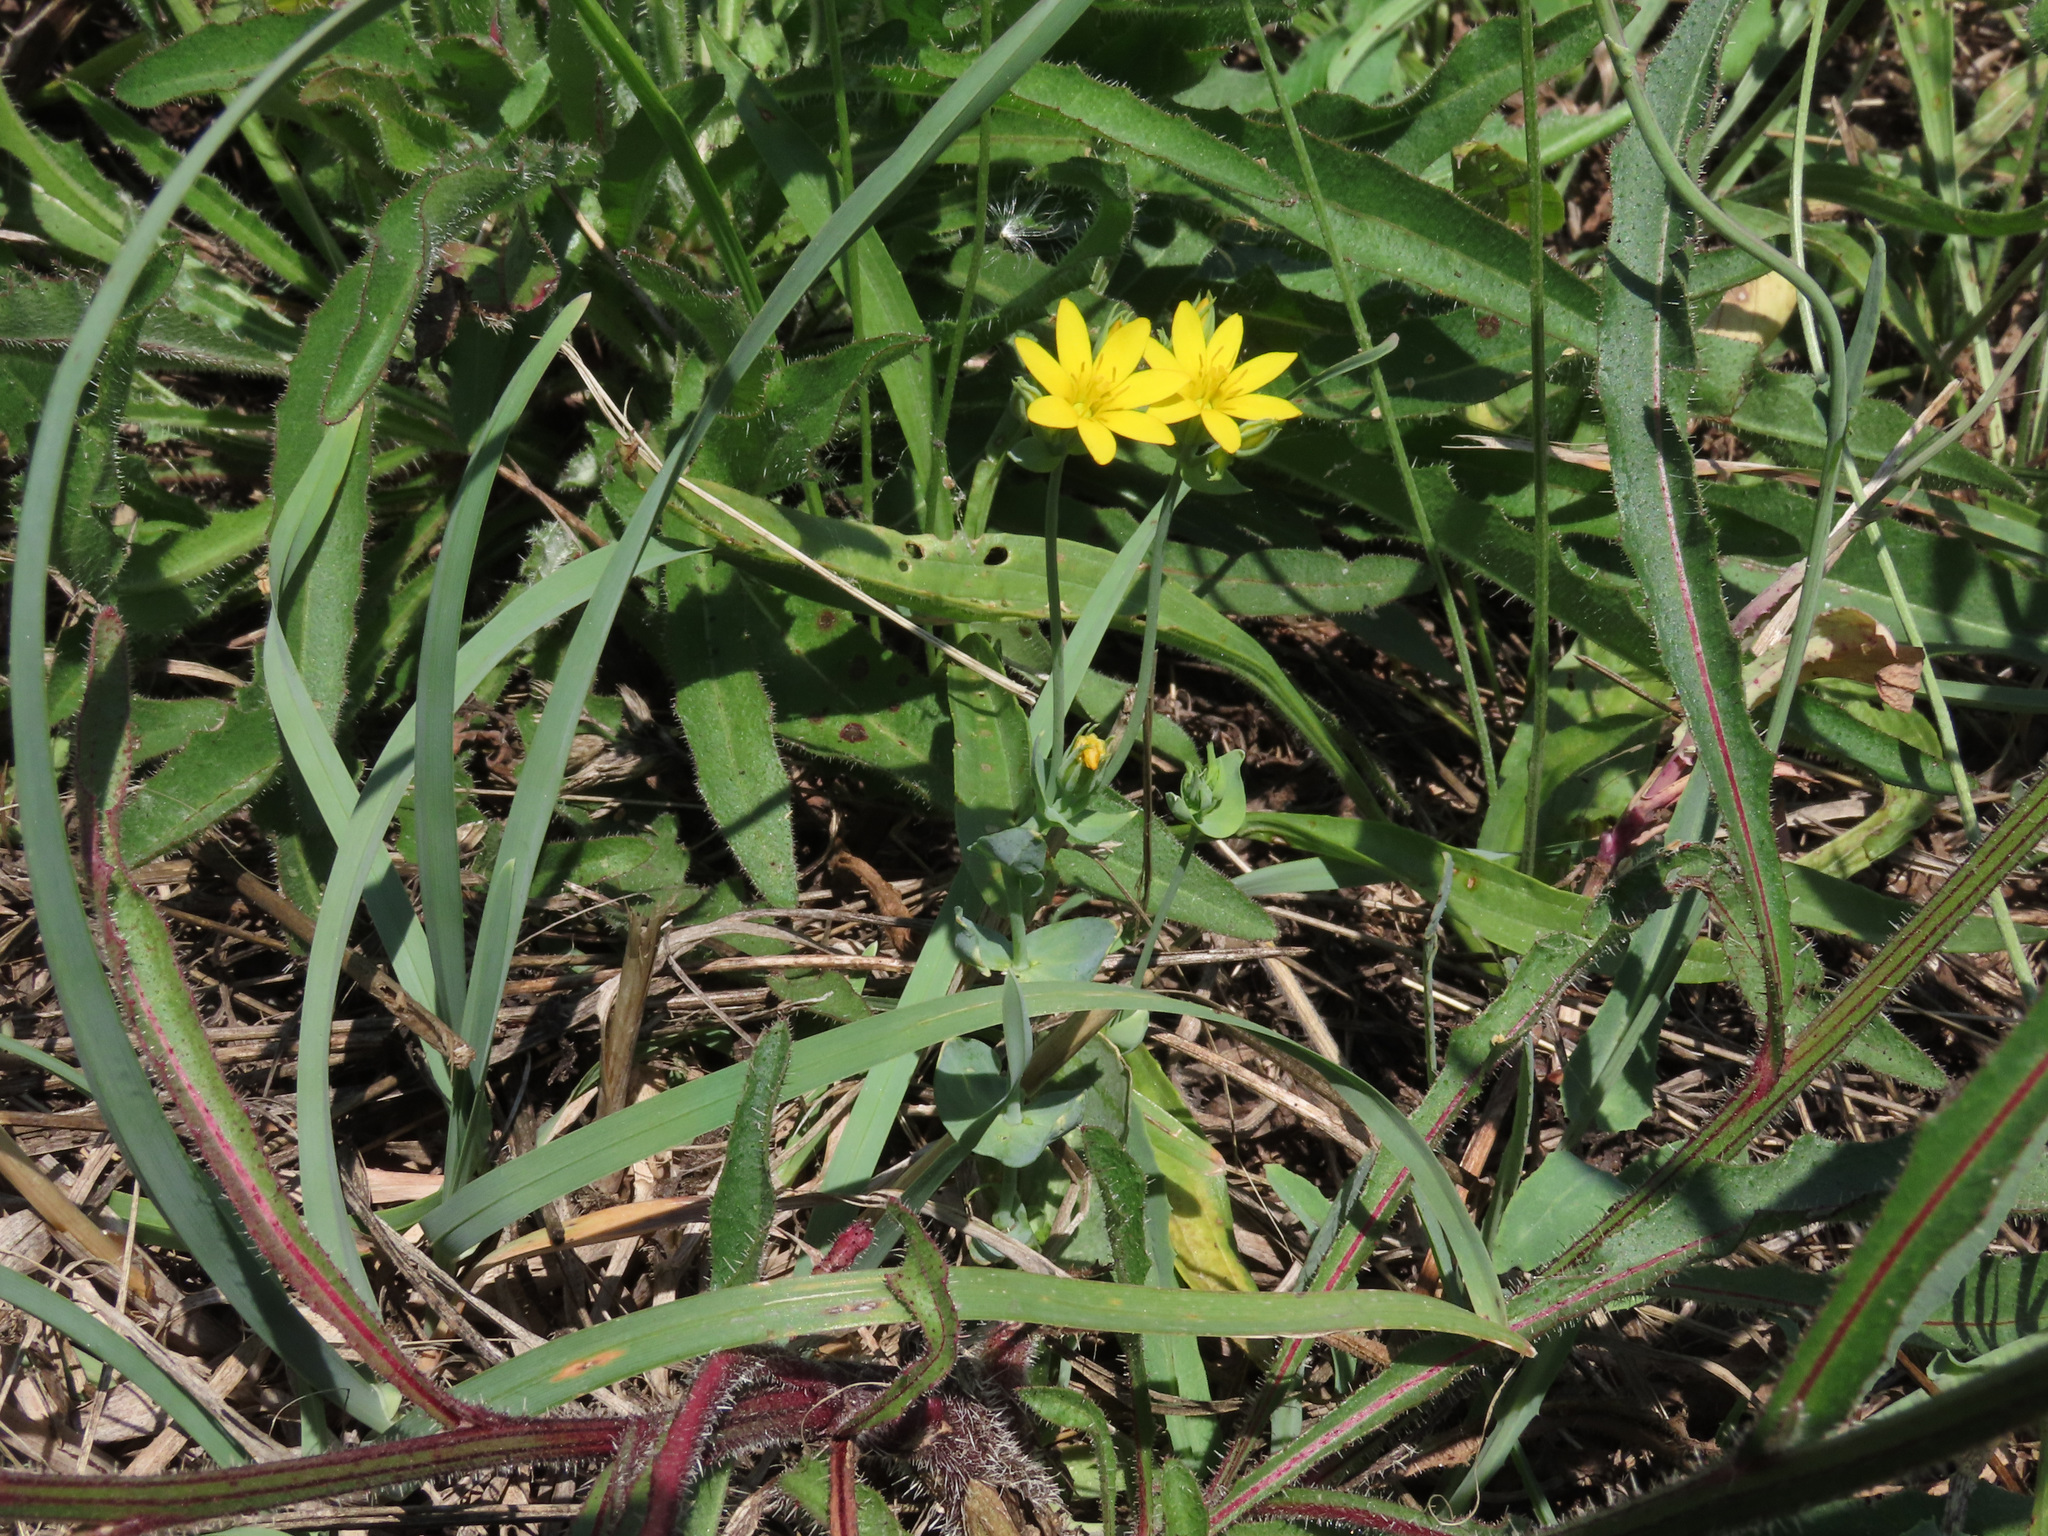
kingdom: Plantae
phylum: Tracheophyta
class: Magnoliopsida
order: Gentianales
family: Gentianaceae
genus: Blackstonia
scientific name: Blackstonia perfoliata
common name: Yellow-wort
